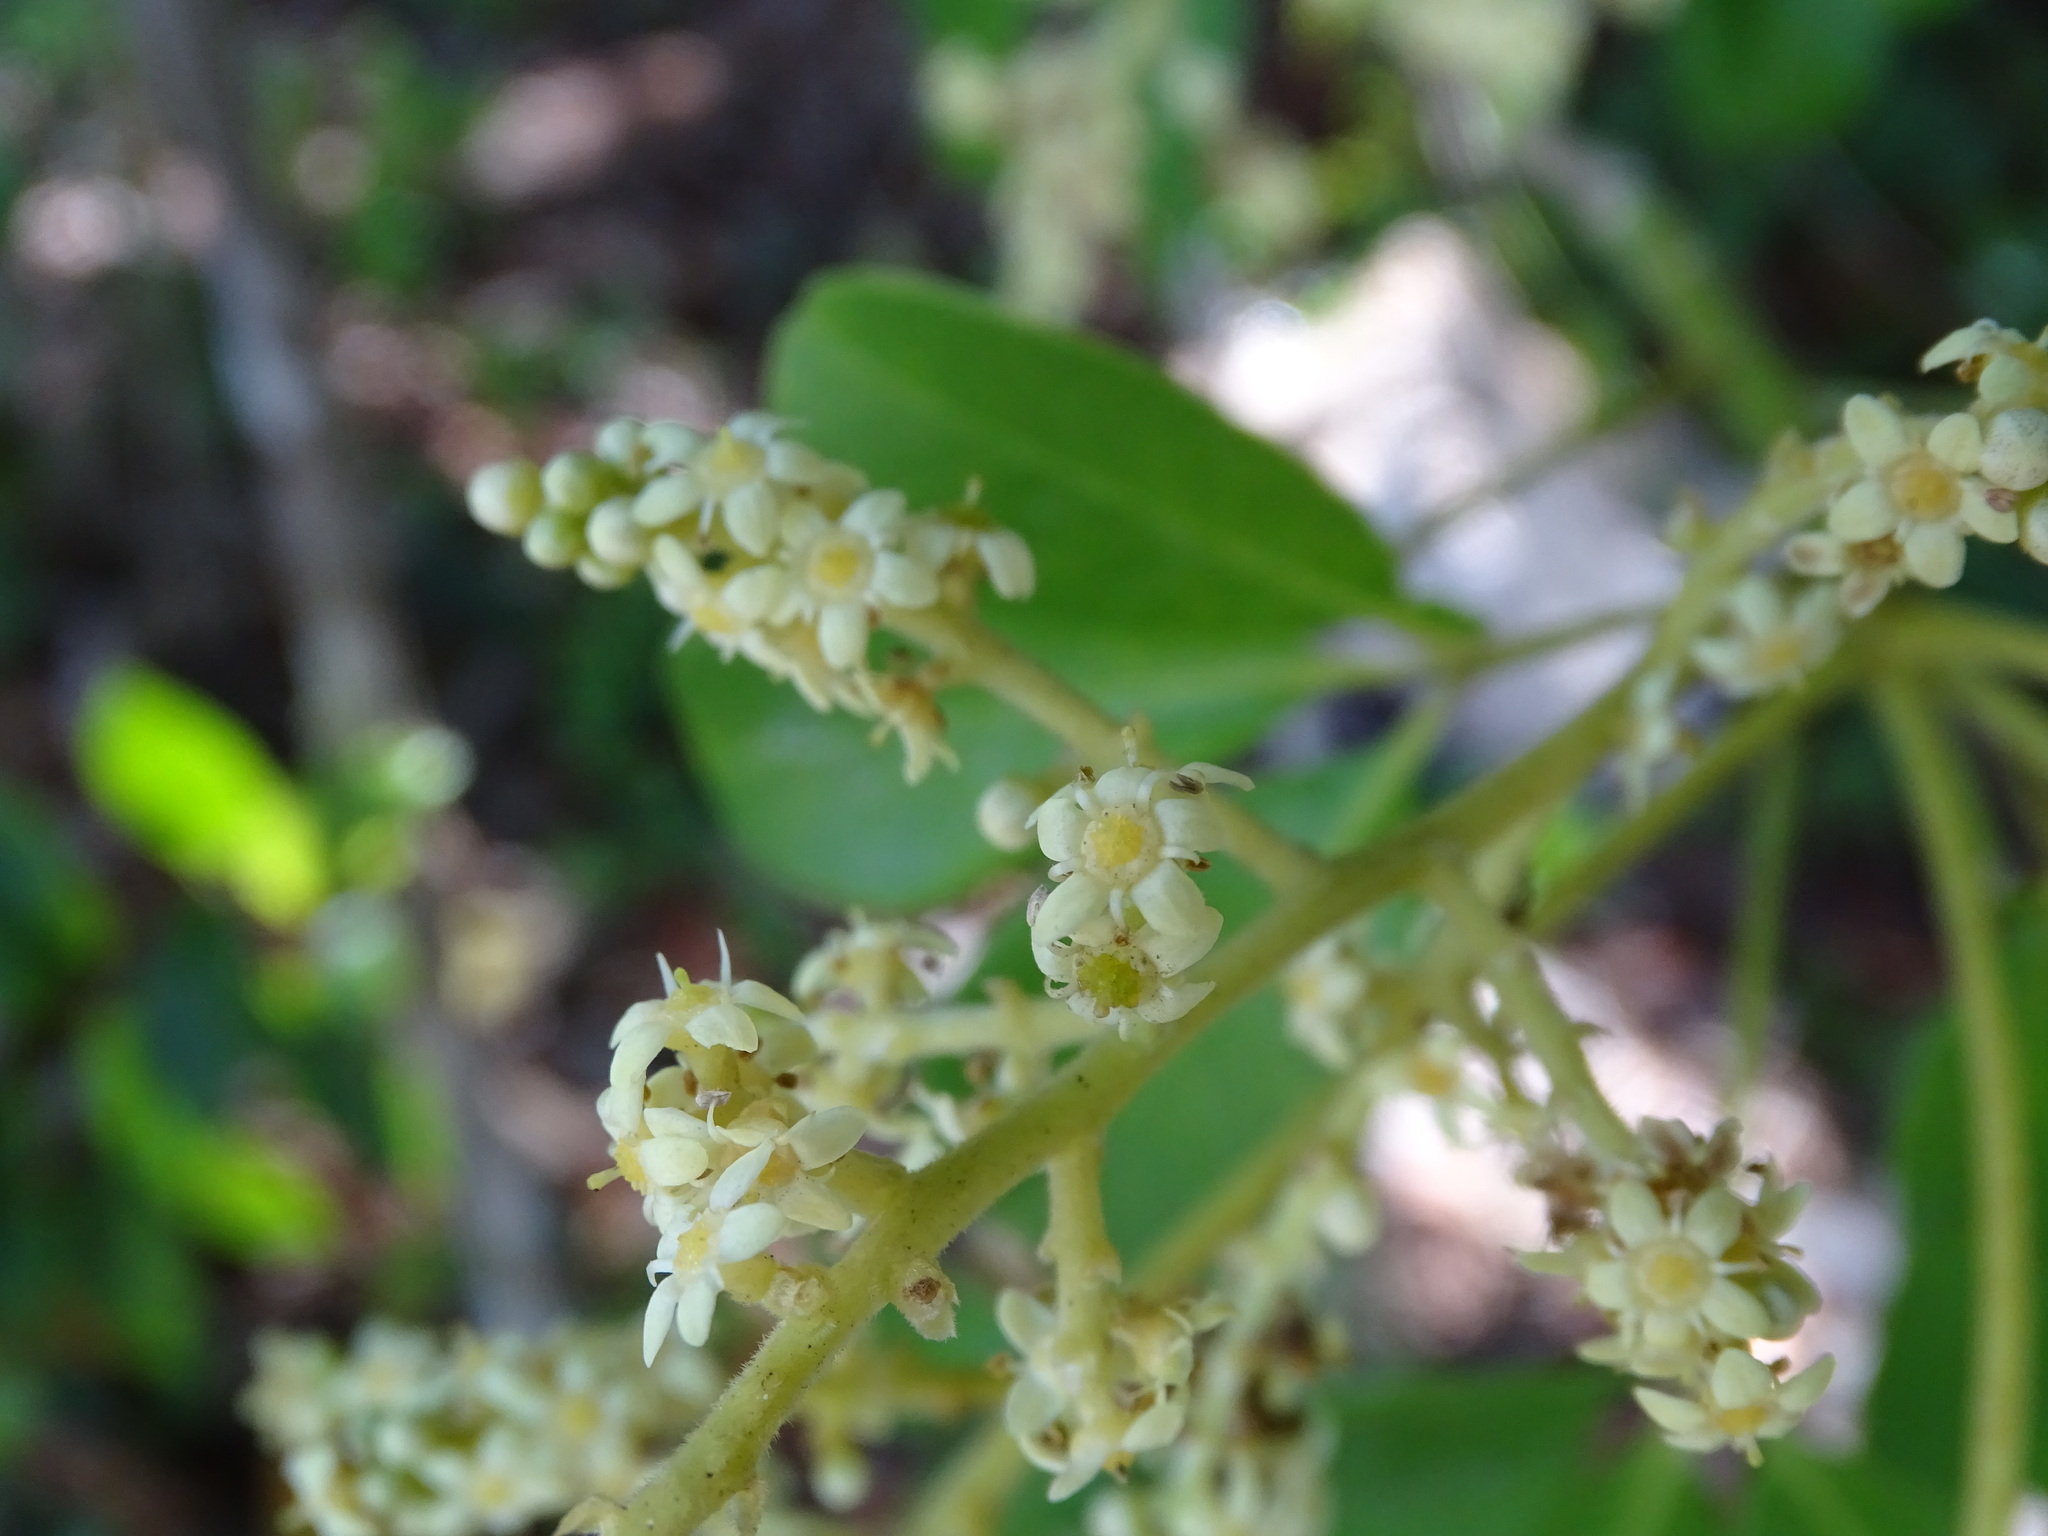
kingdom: Plantae
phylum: Tracheophyta
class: Magnoliopsida
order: Sapindales
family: Rutaceae
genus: Esenbeckia
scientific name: Esenbeckia pentaphylla
